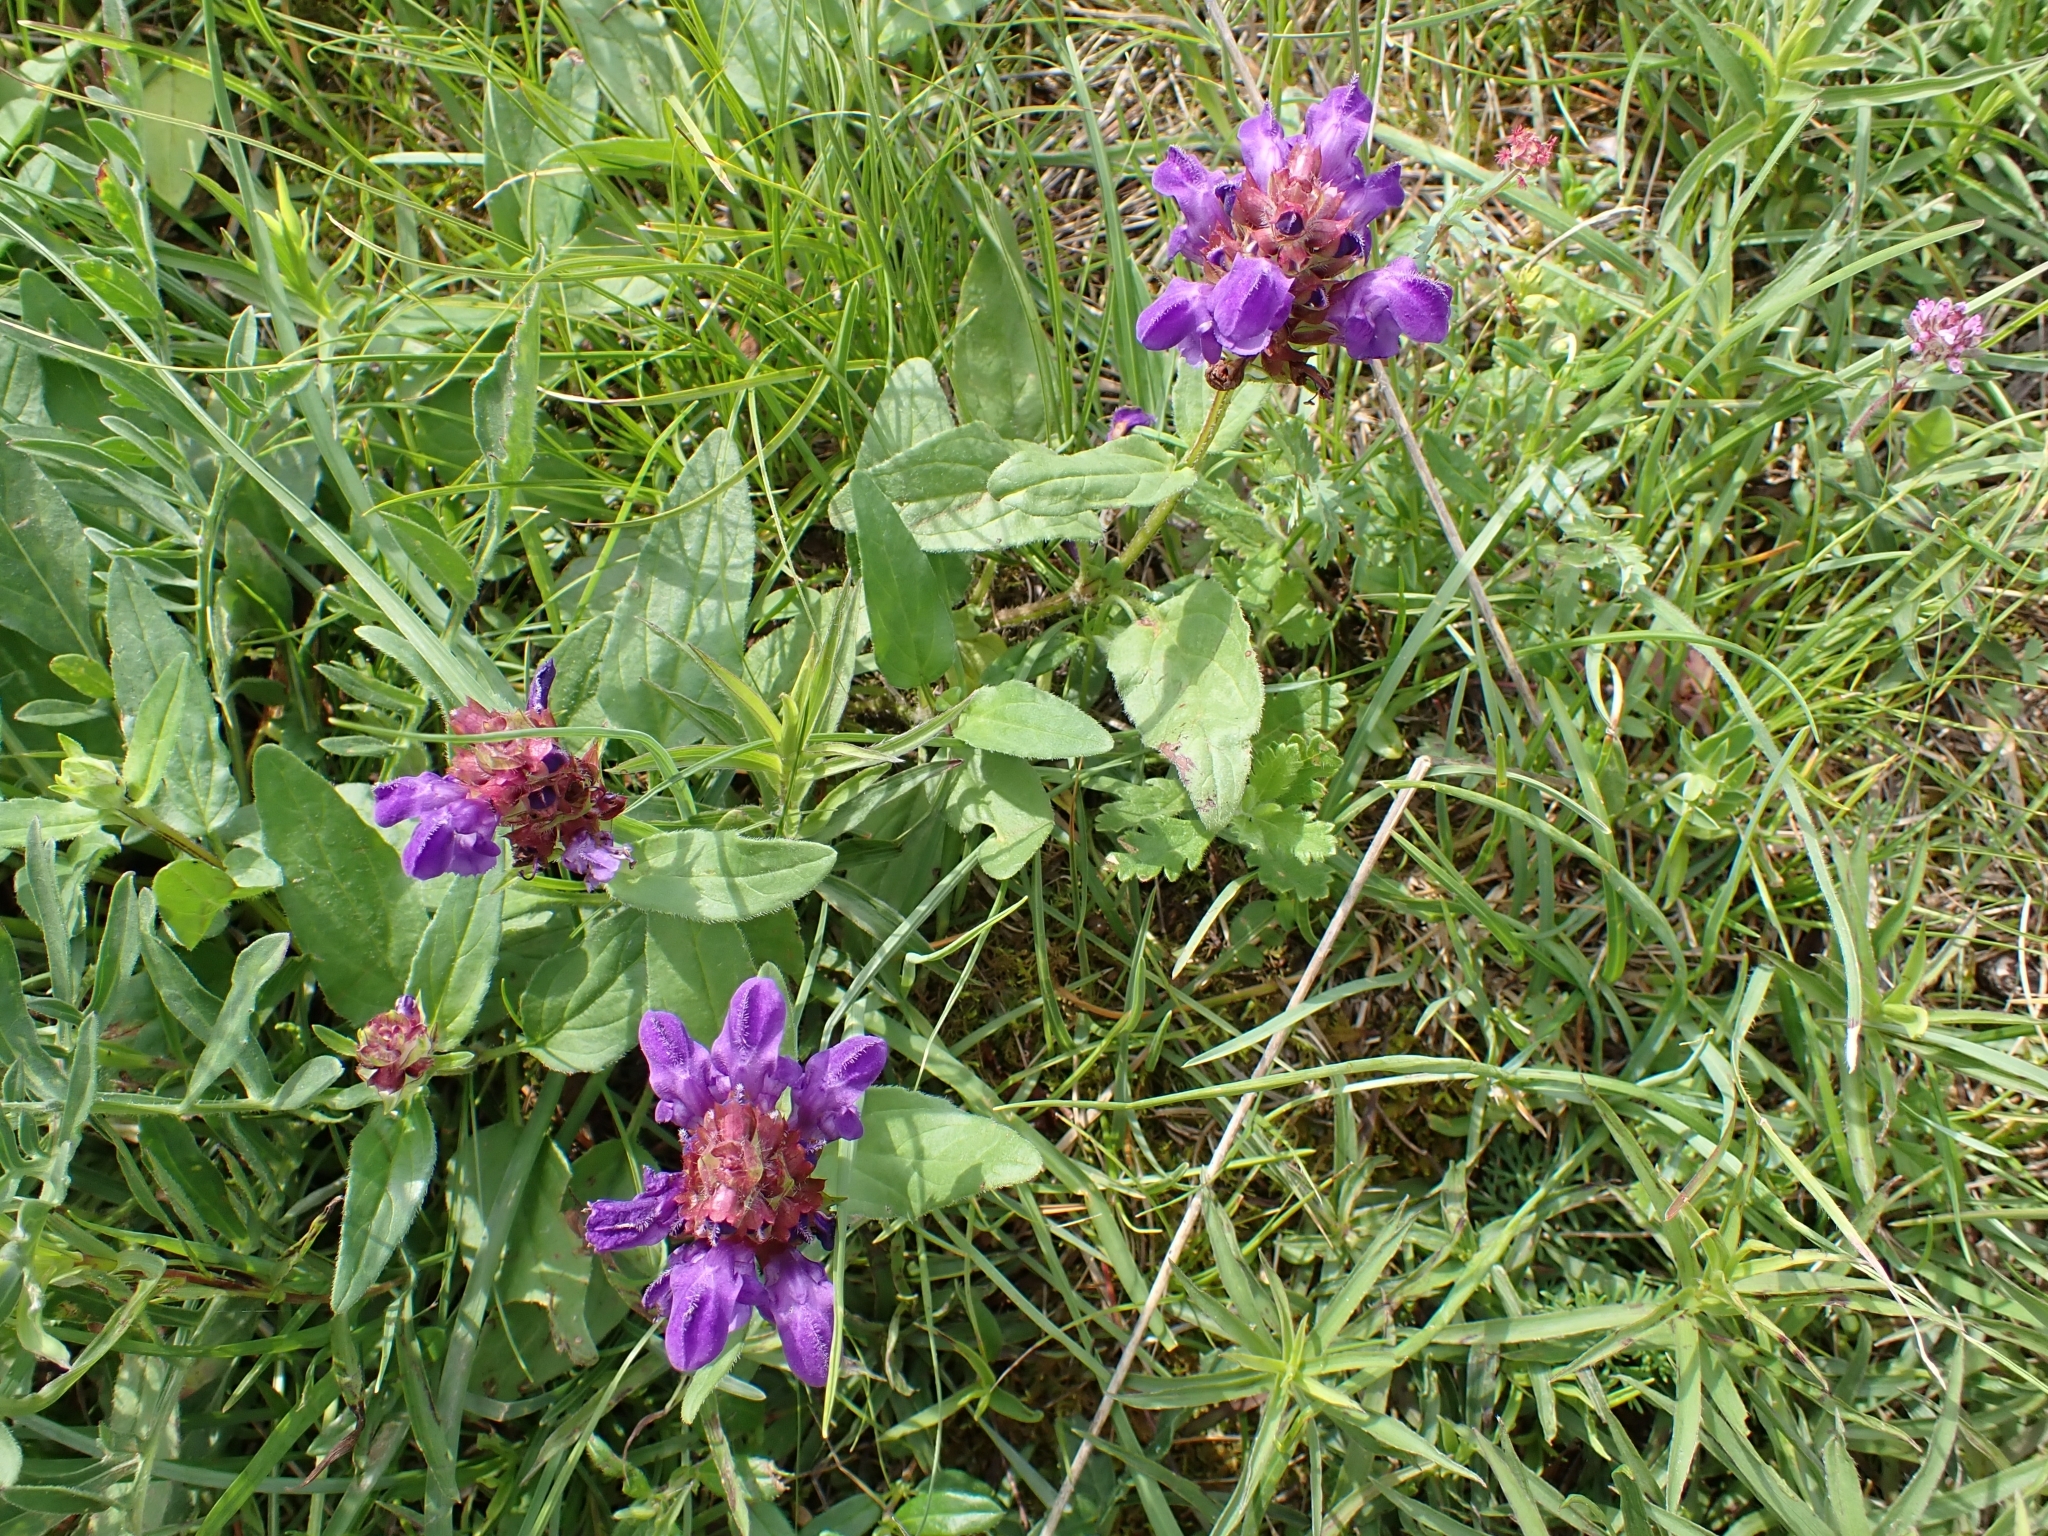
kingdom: Plantae
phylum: Tracheophyta
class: Magnoliopsida
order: Lamiales
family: Lamiaceae
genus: Prunella
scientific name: Prunella grandiflora
